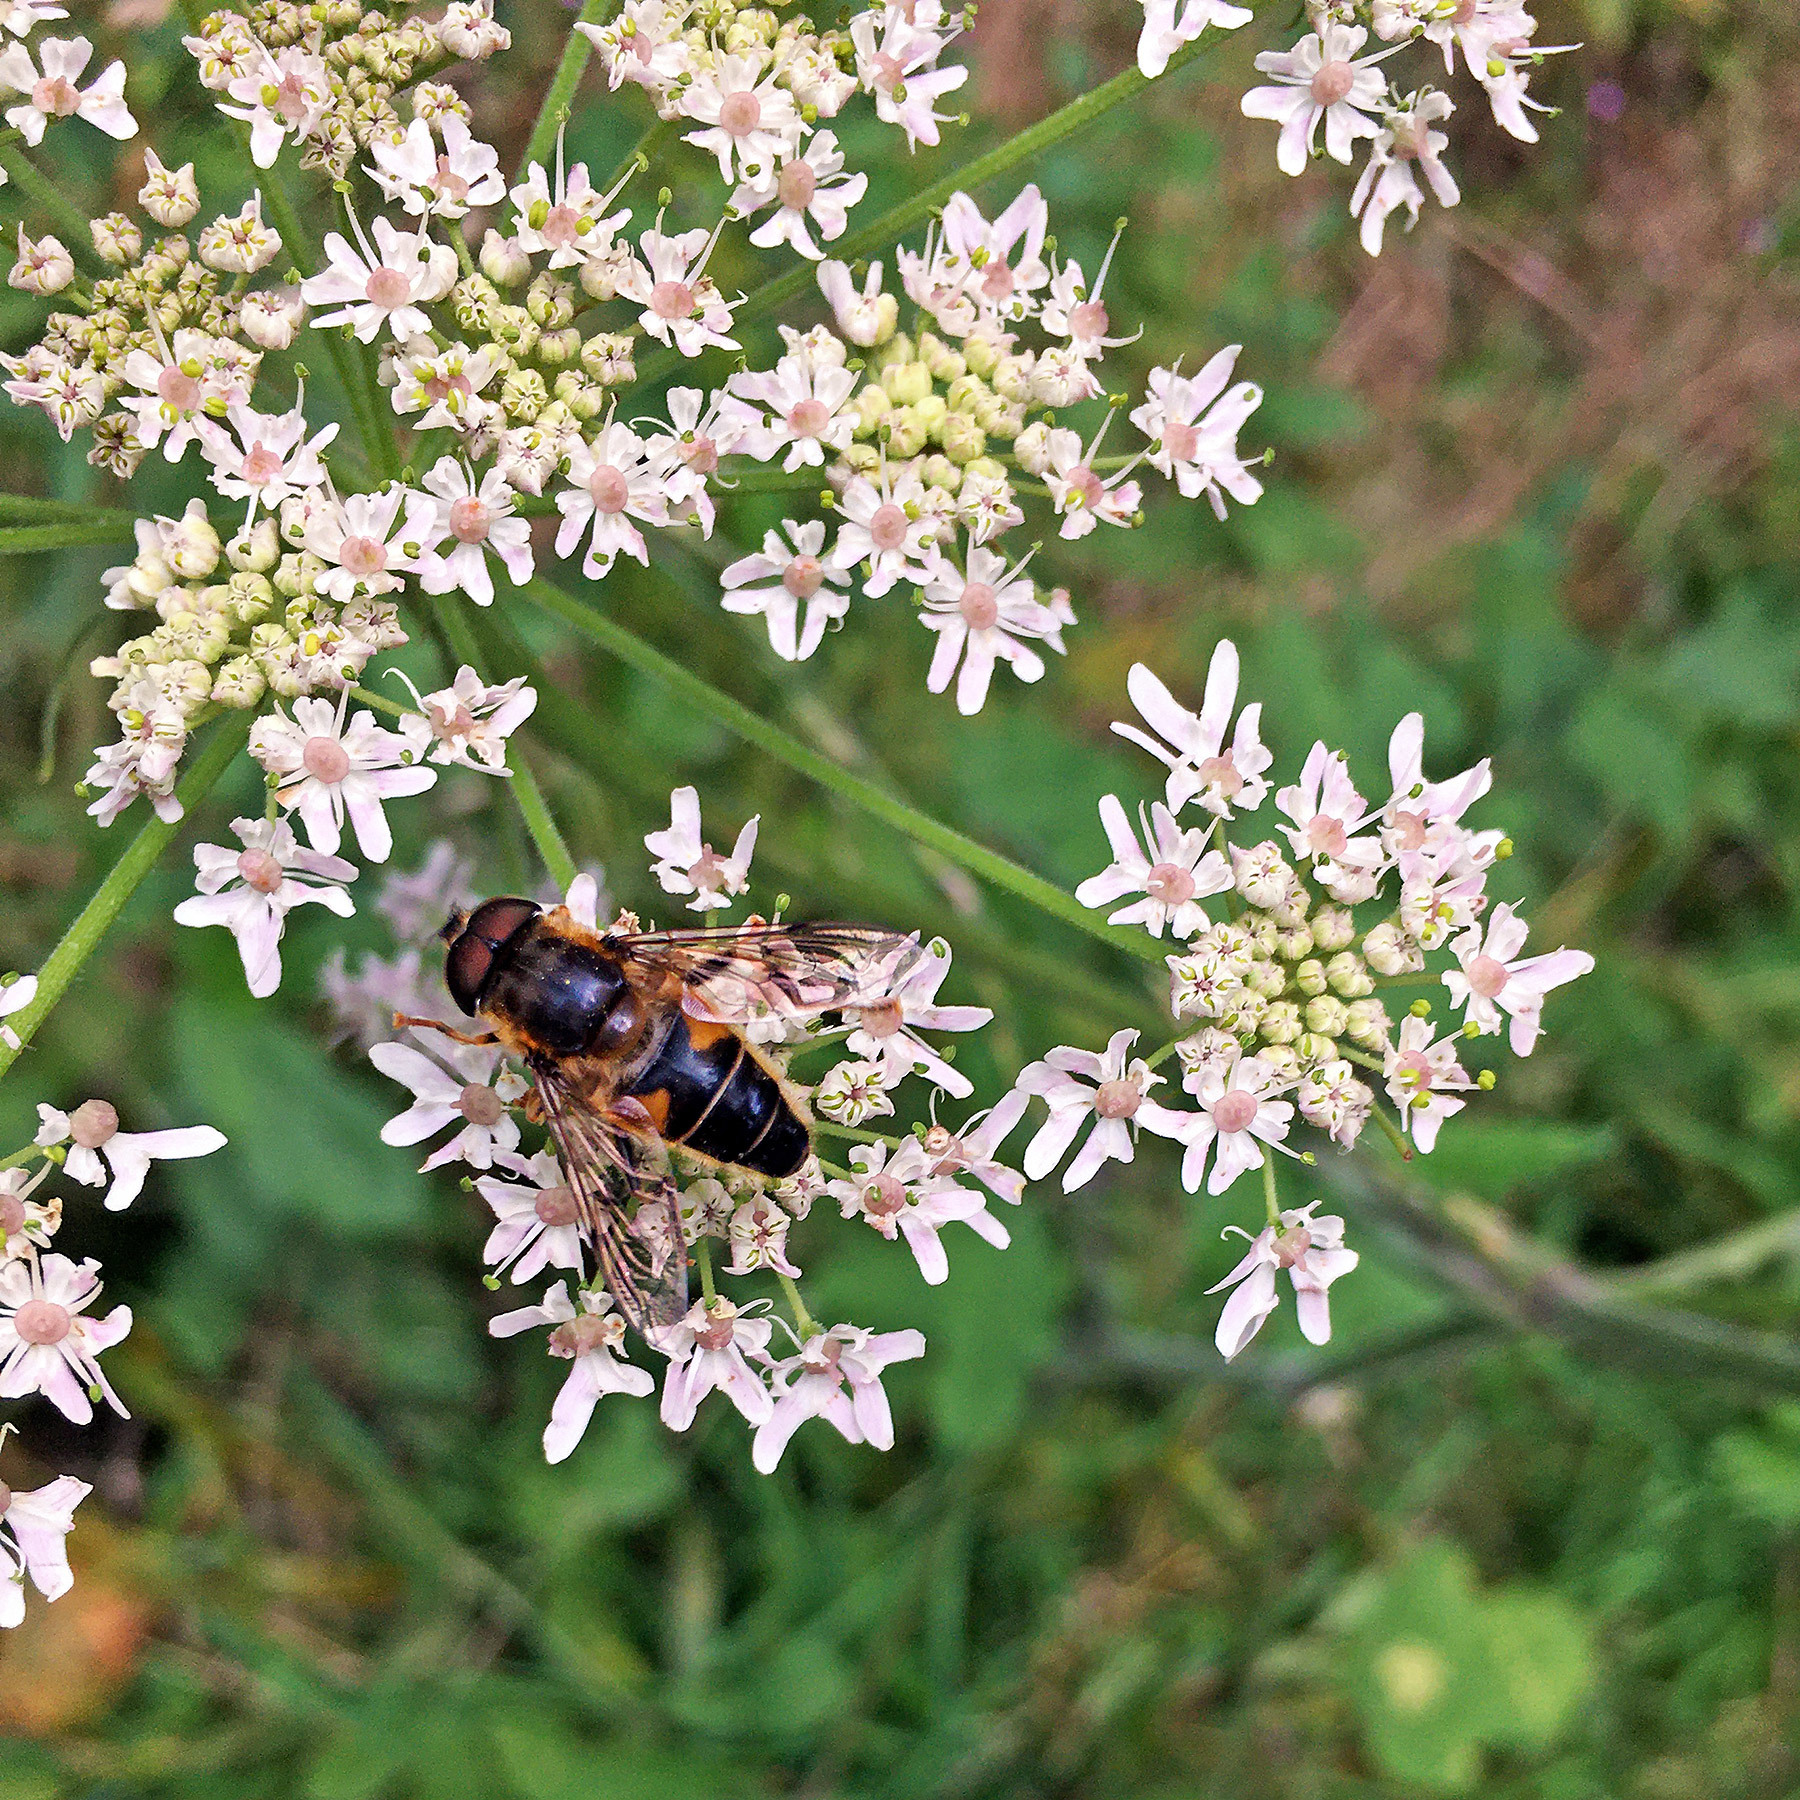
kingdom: Animalia
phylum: Arthropoda
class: Insecta
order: Diptera
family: Syrphidae
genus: Eristalis
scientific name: Eristalis pertinax
